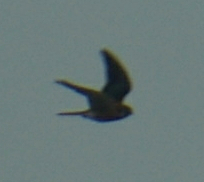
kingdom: Animalia
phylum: Chordata
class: Aves
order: Falconiformes
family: Falconidae
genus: Falco
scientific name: Falco sparverius
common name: American kestrel
